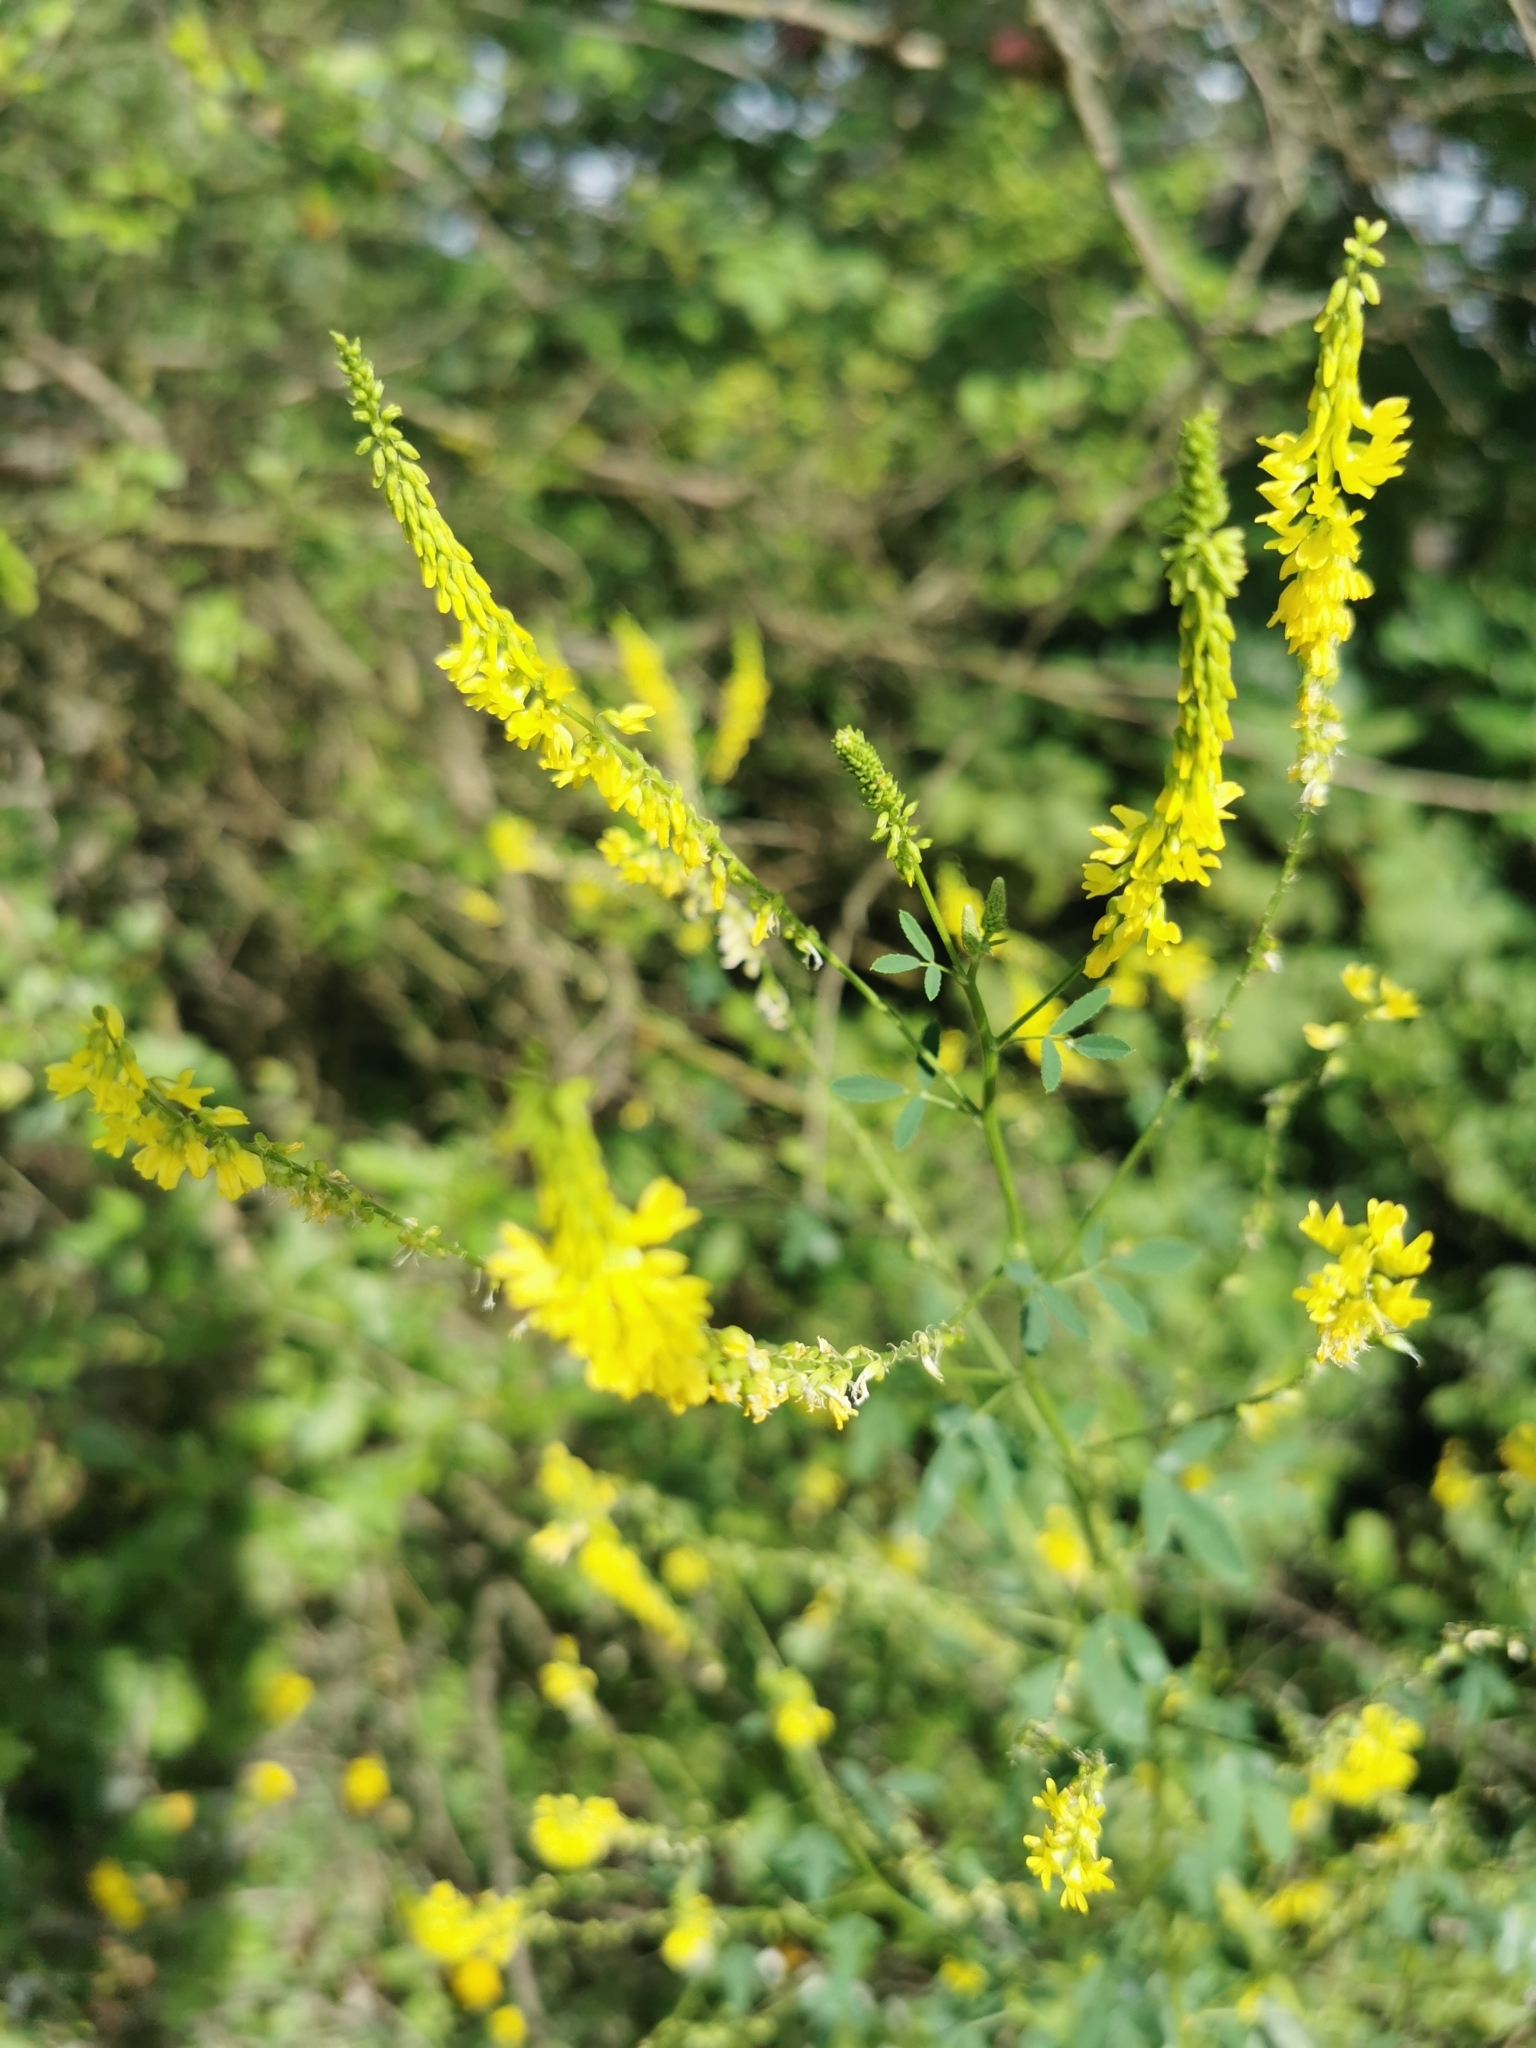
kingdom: Plantae
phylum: Tracheophyta
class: Magnoliopsida
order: Fabales
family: Fabaceae
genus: Melilotus
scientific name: Melilotus officinalis
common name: Sweetclover
